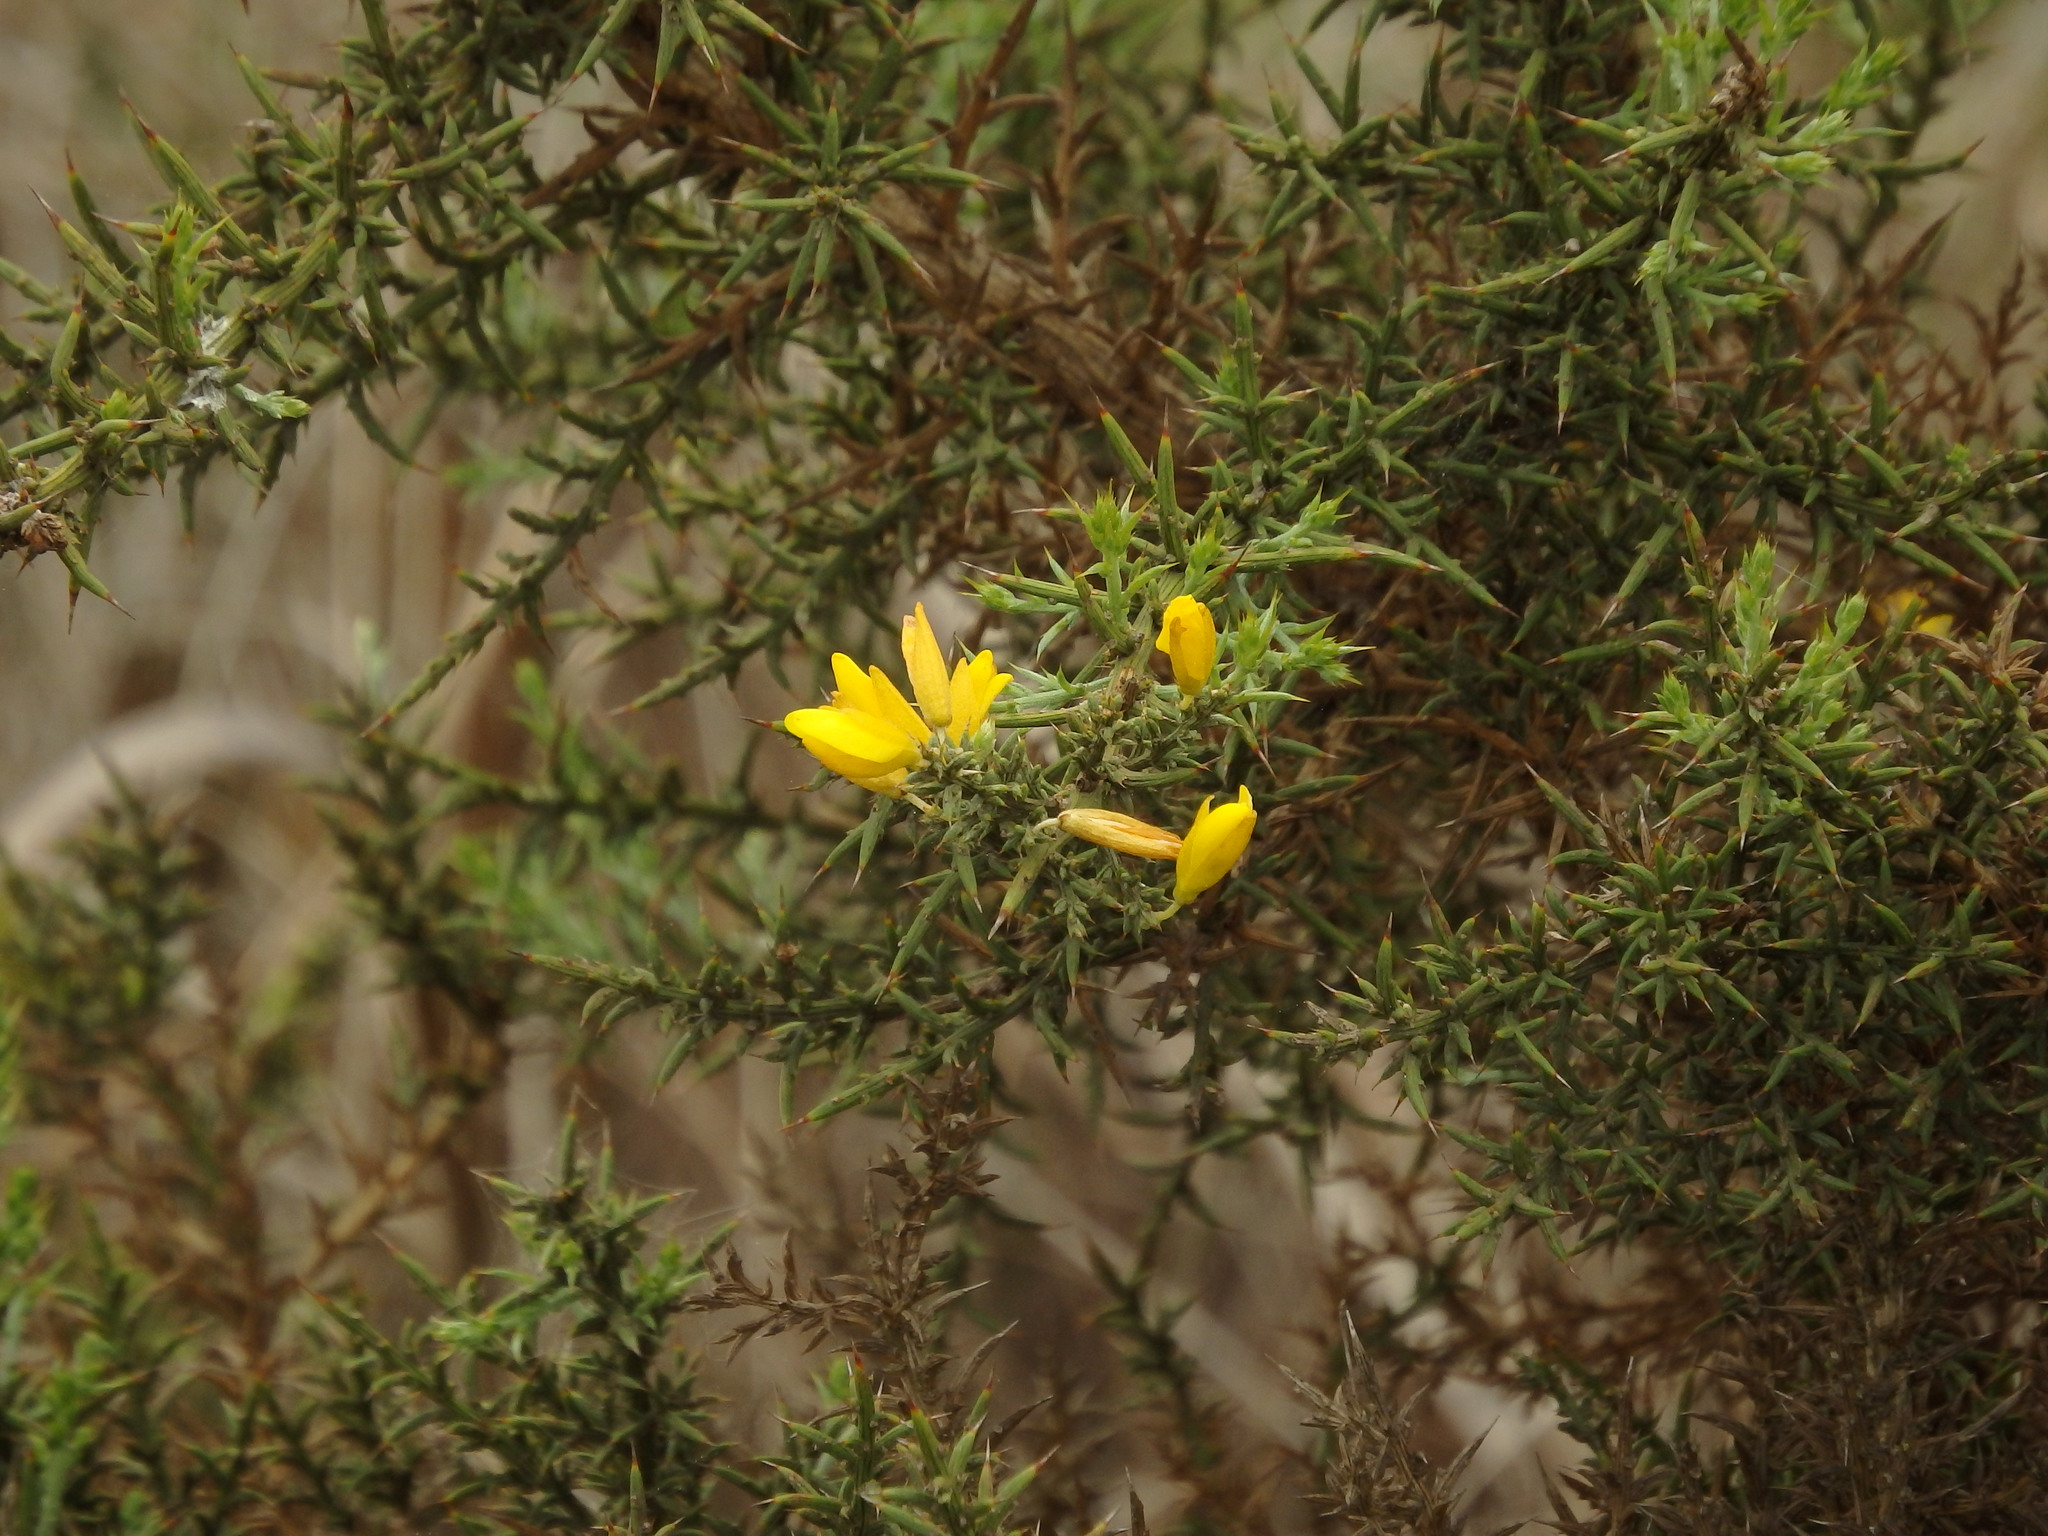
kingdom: Plantae
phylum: Tracheophyta
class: Magnoliopsida
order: Fabales
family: Fabaceae
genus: Ulex
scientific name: Ulex argenteus
